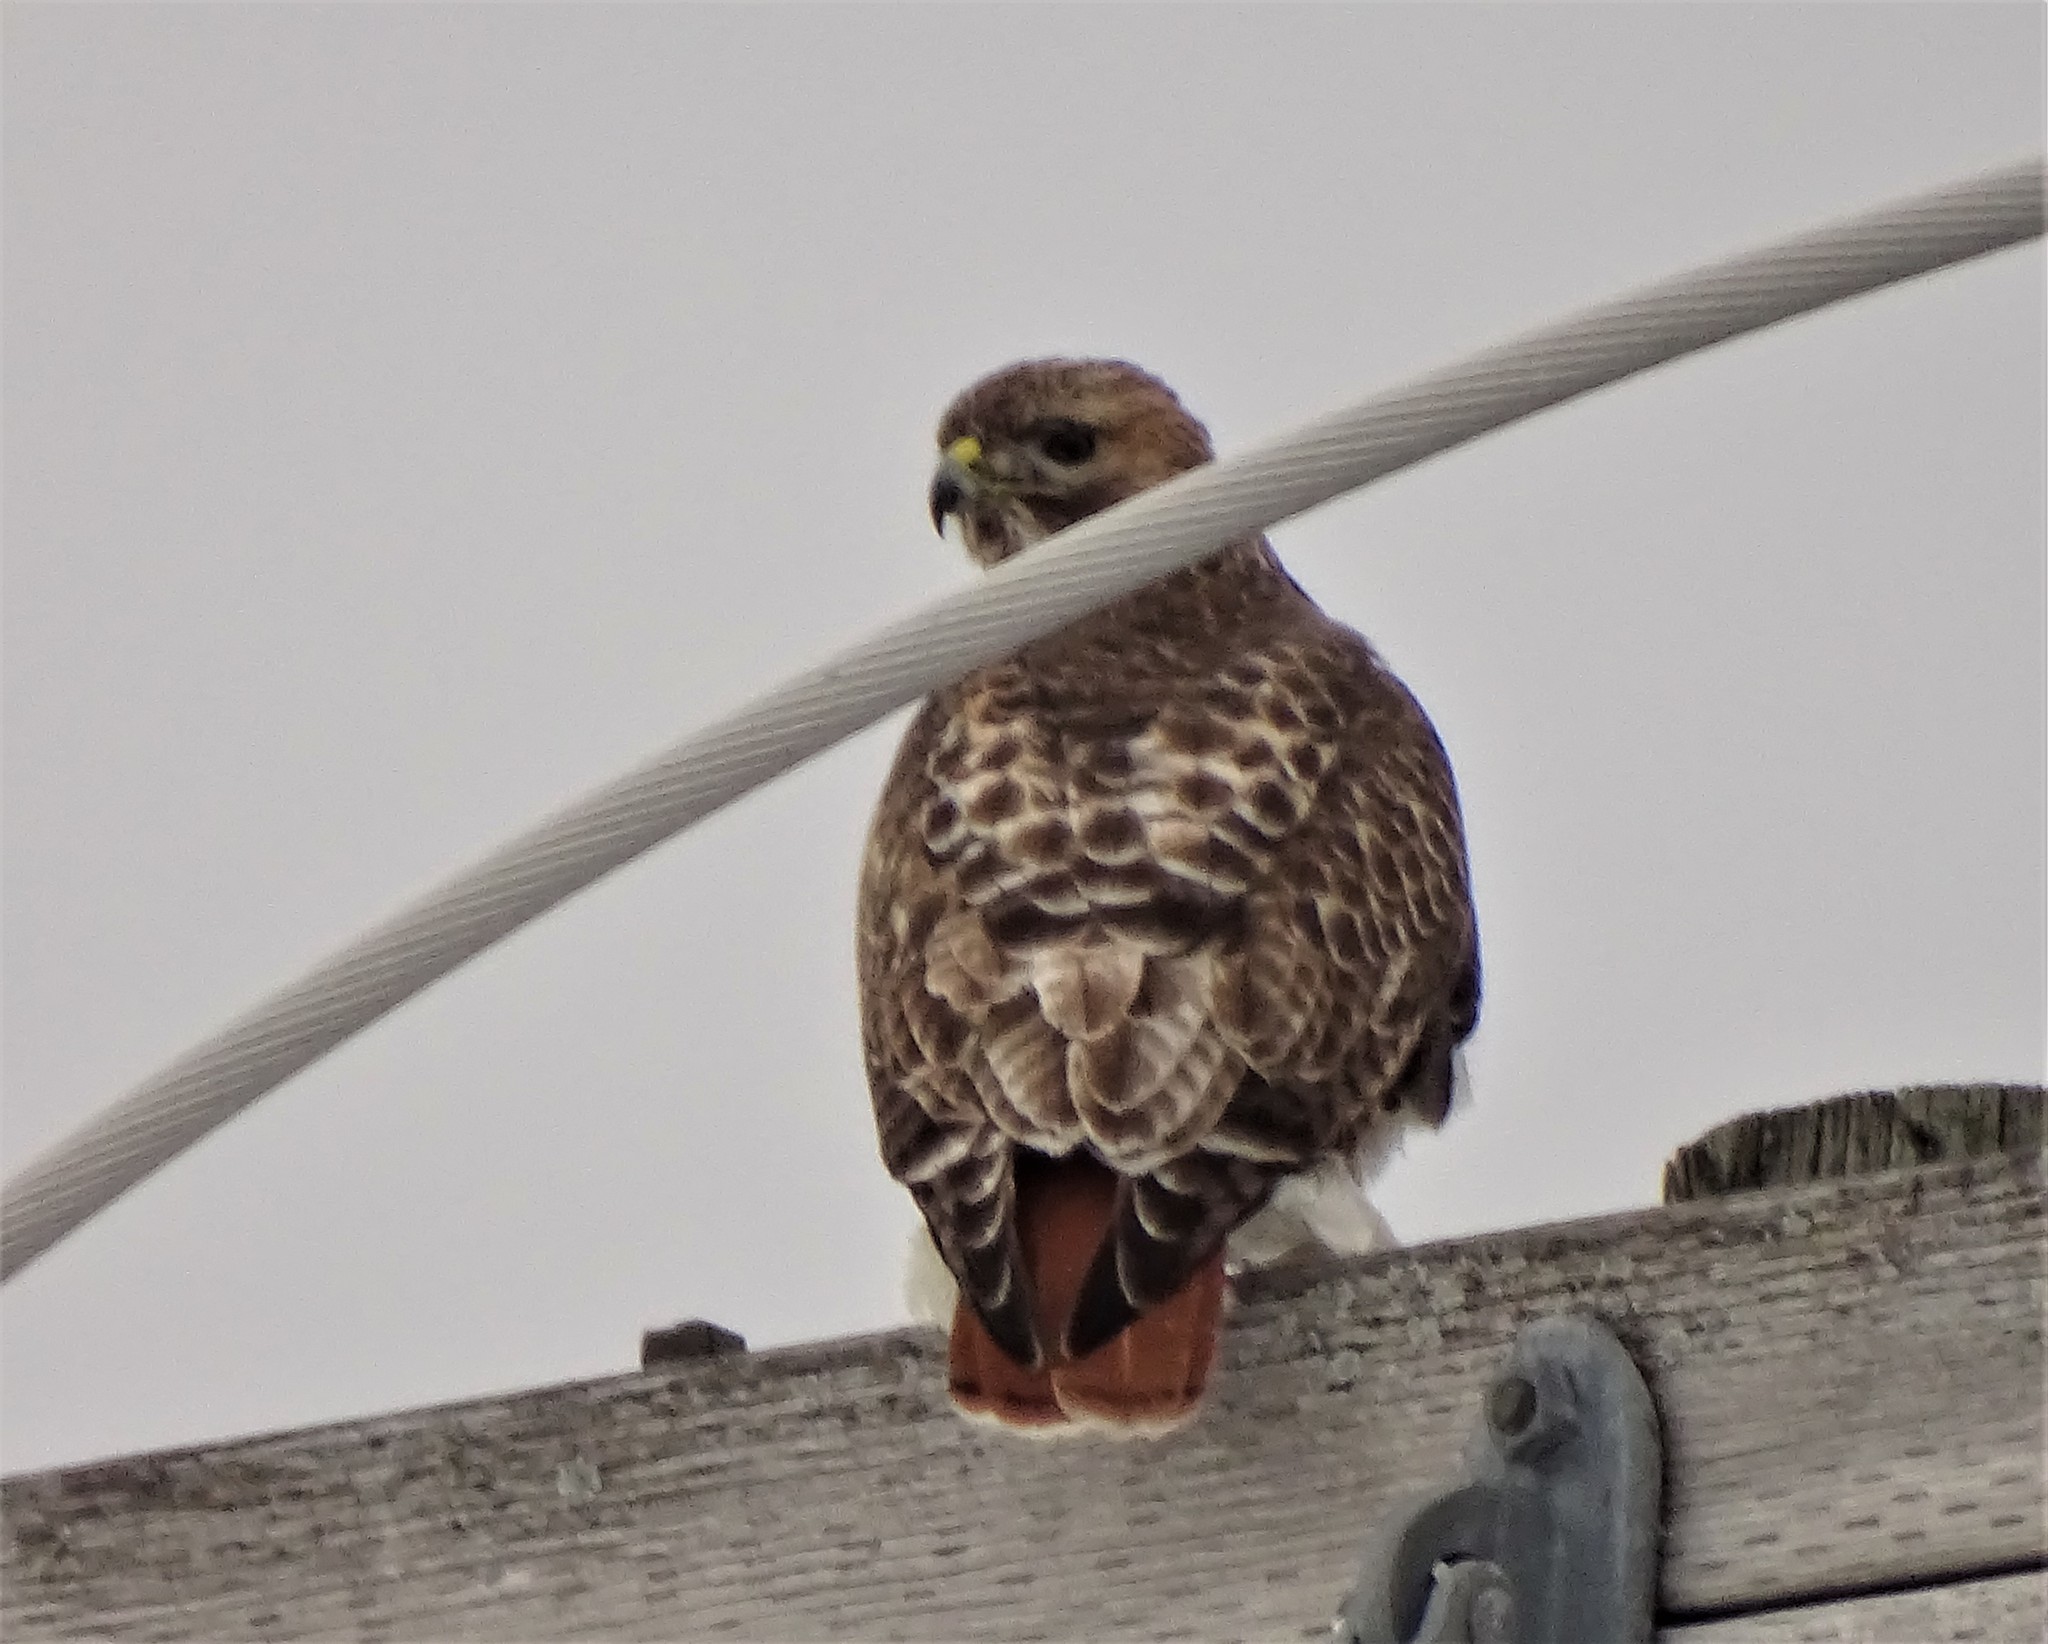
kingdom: Animalia
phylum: Chordata
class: Aves
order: Accipitriformes
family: Accipitridae
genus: Buteo
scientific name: Buteo jamaicensis
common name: Red-tailed hawk
